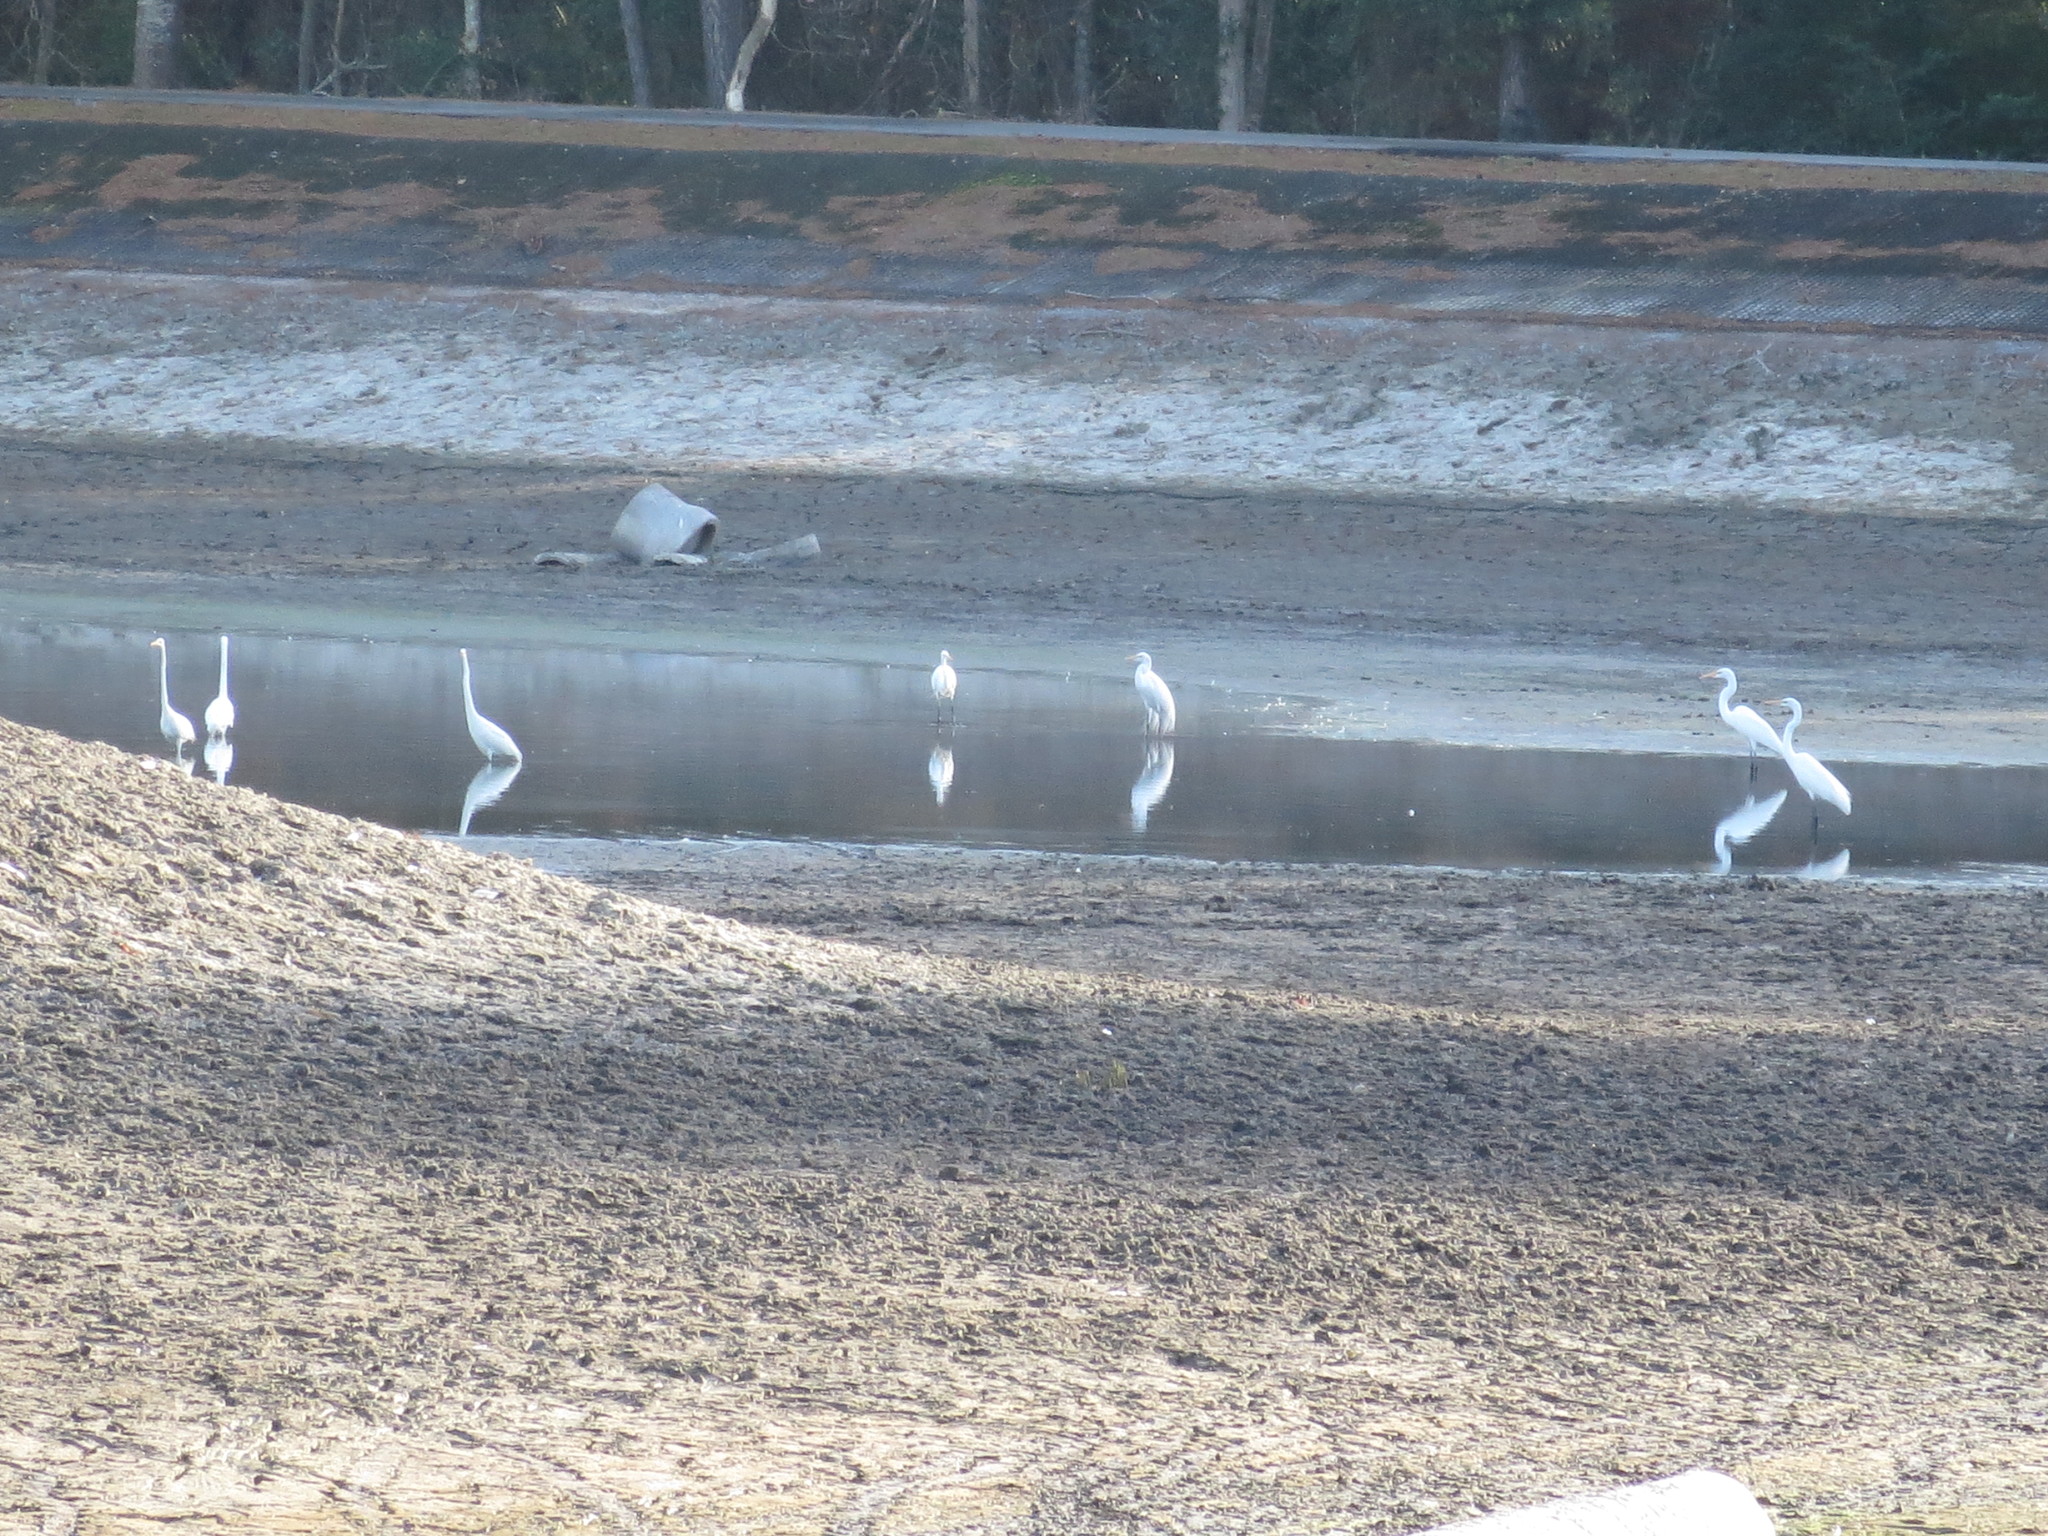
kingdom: Animalia
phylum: Chordata
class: Aves
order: Pelecaniformes
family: Ardeidae
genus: Ardea
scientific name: Ardea alba
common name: Great egret
